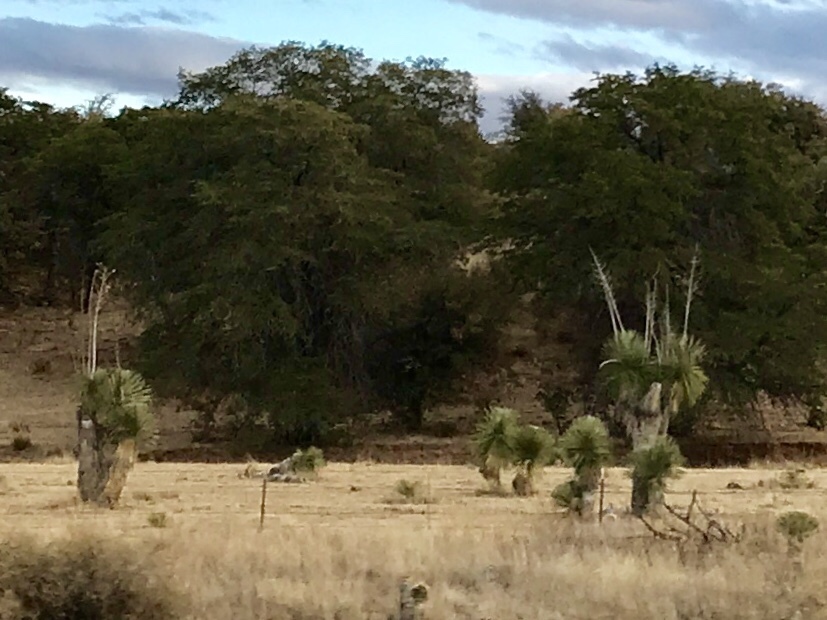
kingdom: Plantae
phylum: Tracheophyta
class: Liliopsida
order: Asparagales
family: Asparagaceae
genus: Yucca
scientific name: Yucca elata
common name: Palmella
